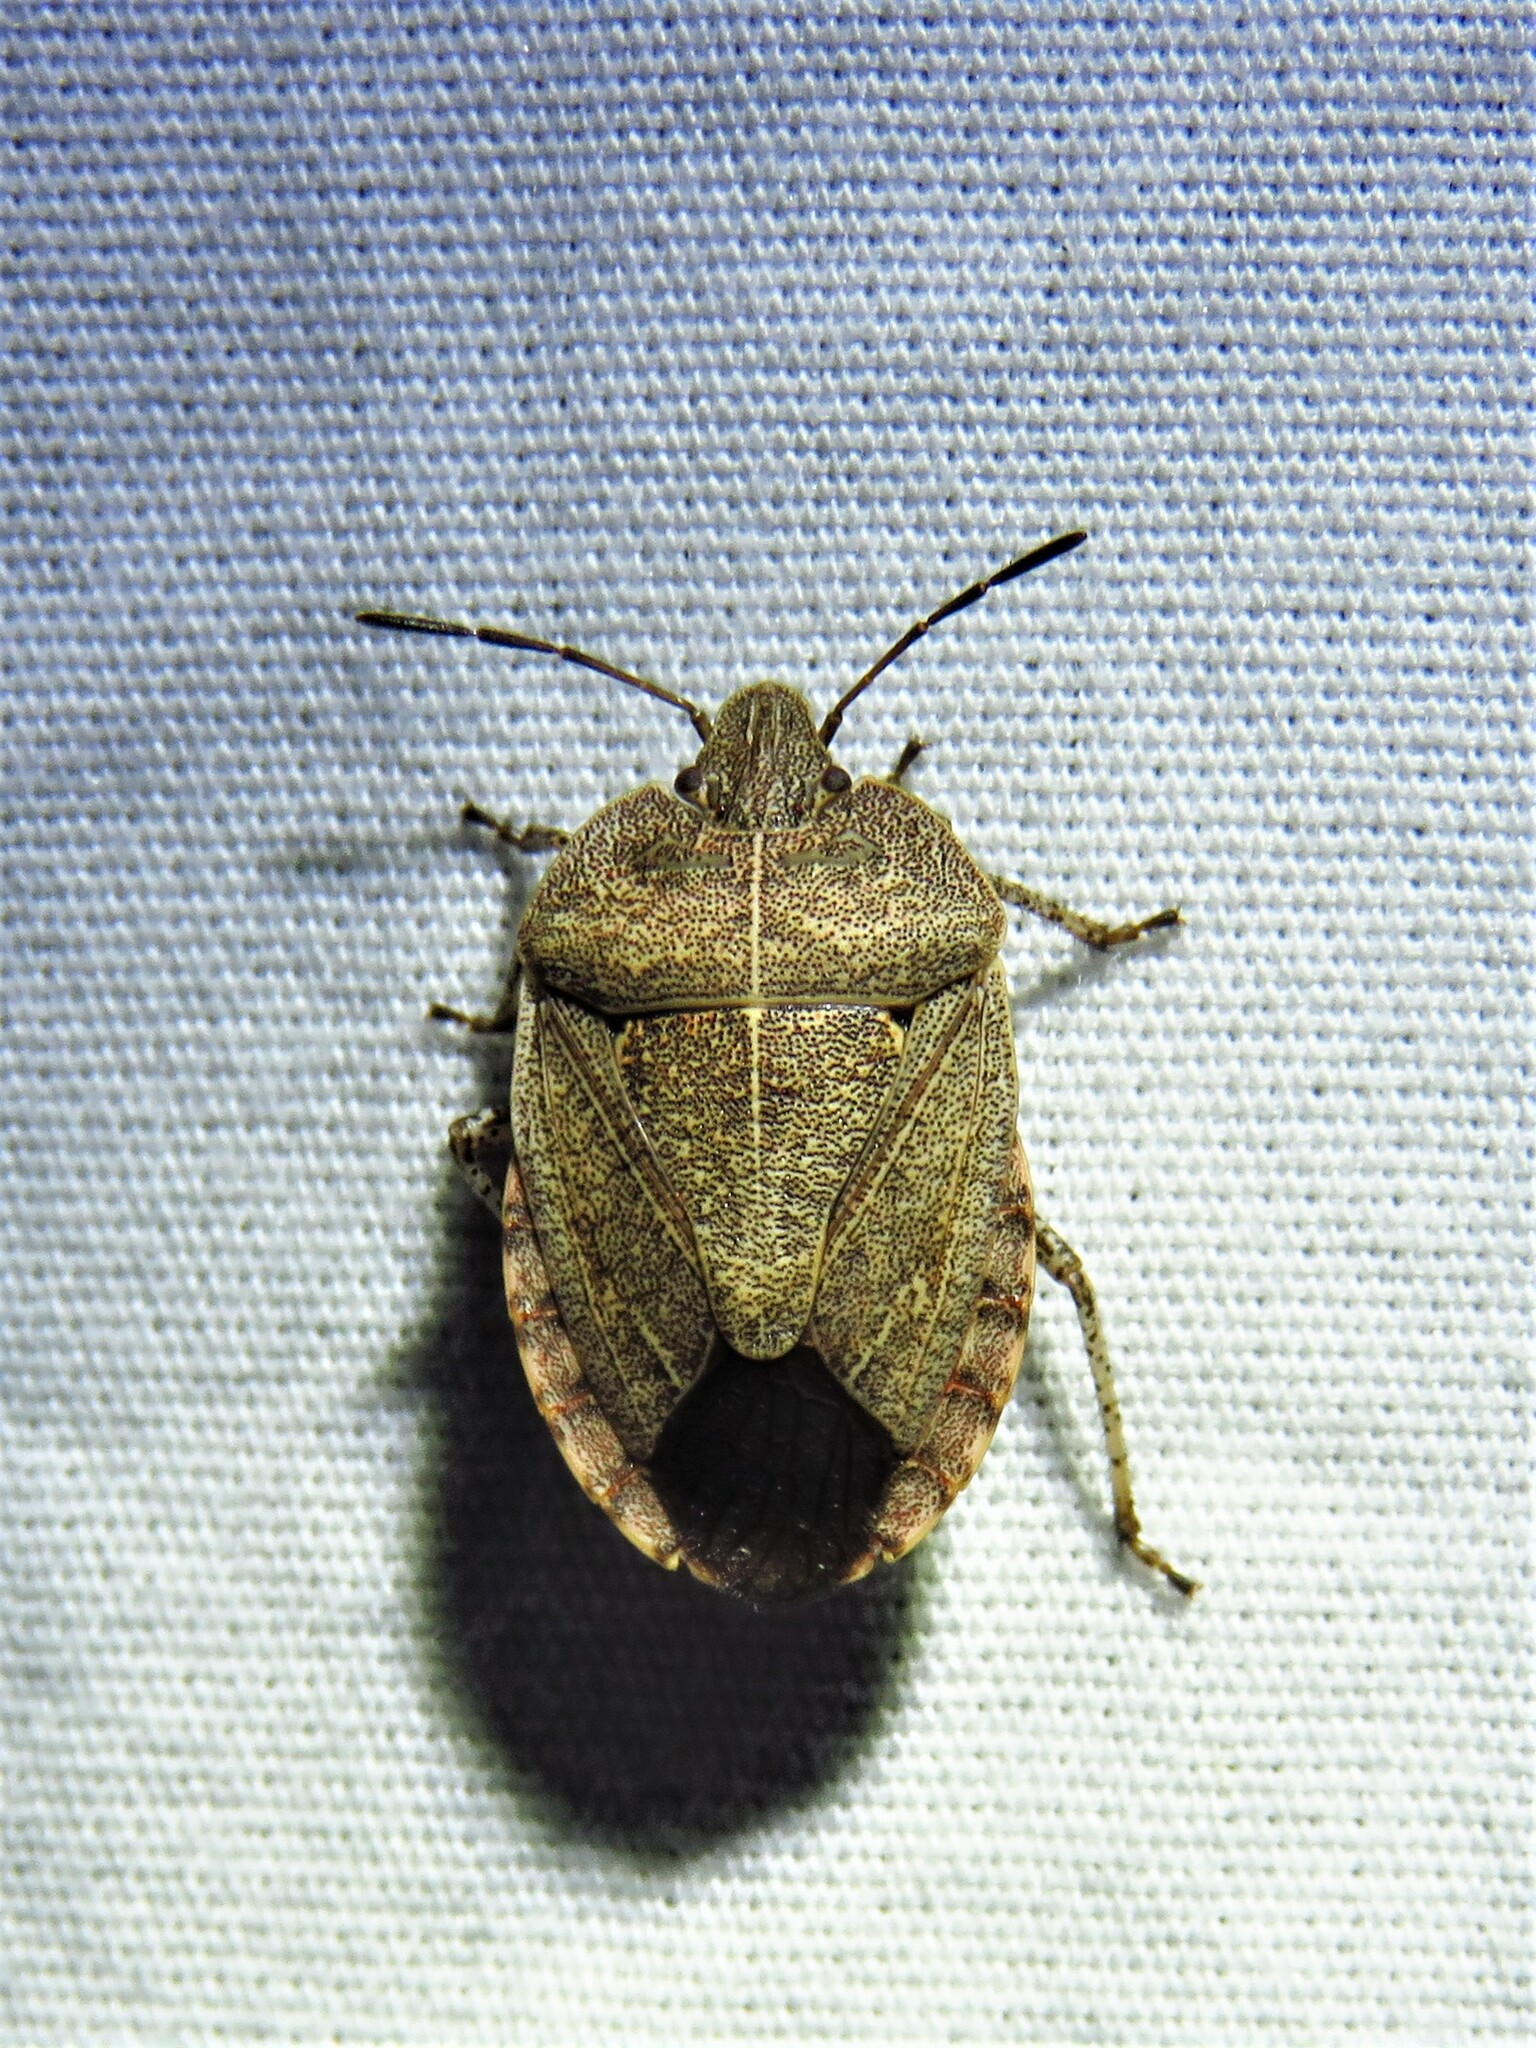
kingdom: Animalia
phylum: Arthropoda
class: Insecta
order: Hemiptera
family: Pentatomidae
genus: Menecles
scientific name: Menecles insertus
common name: Elf shoe stink bug
